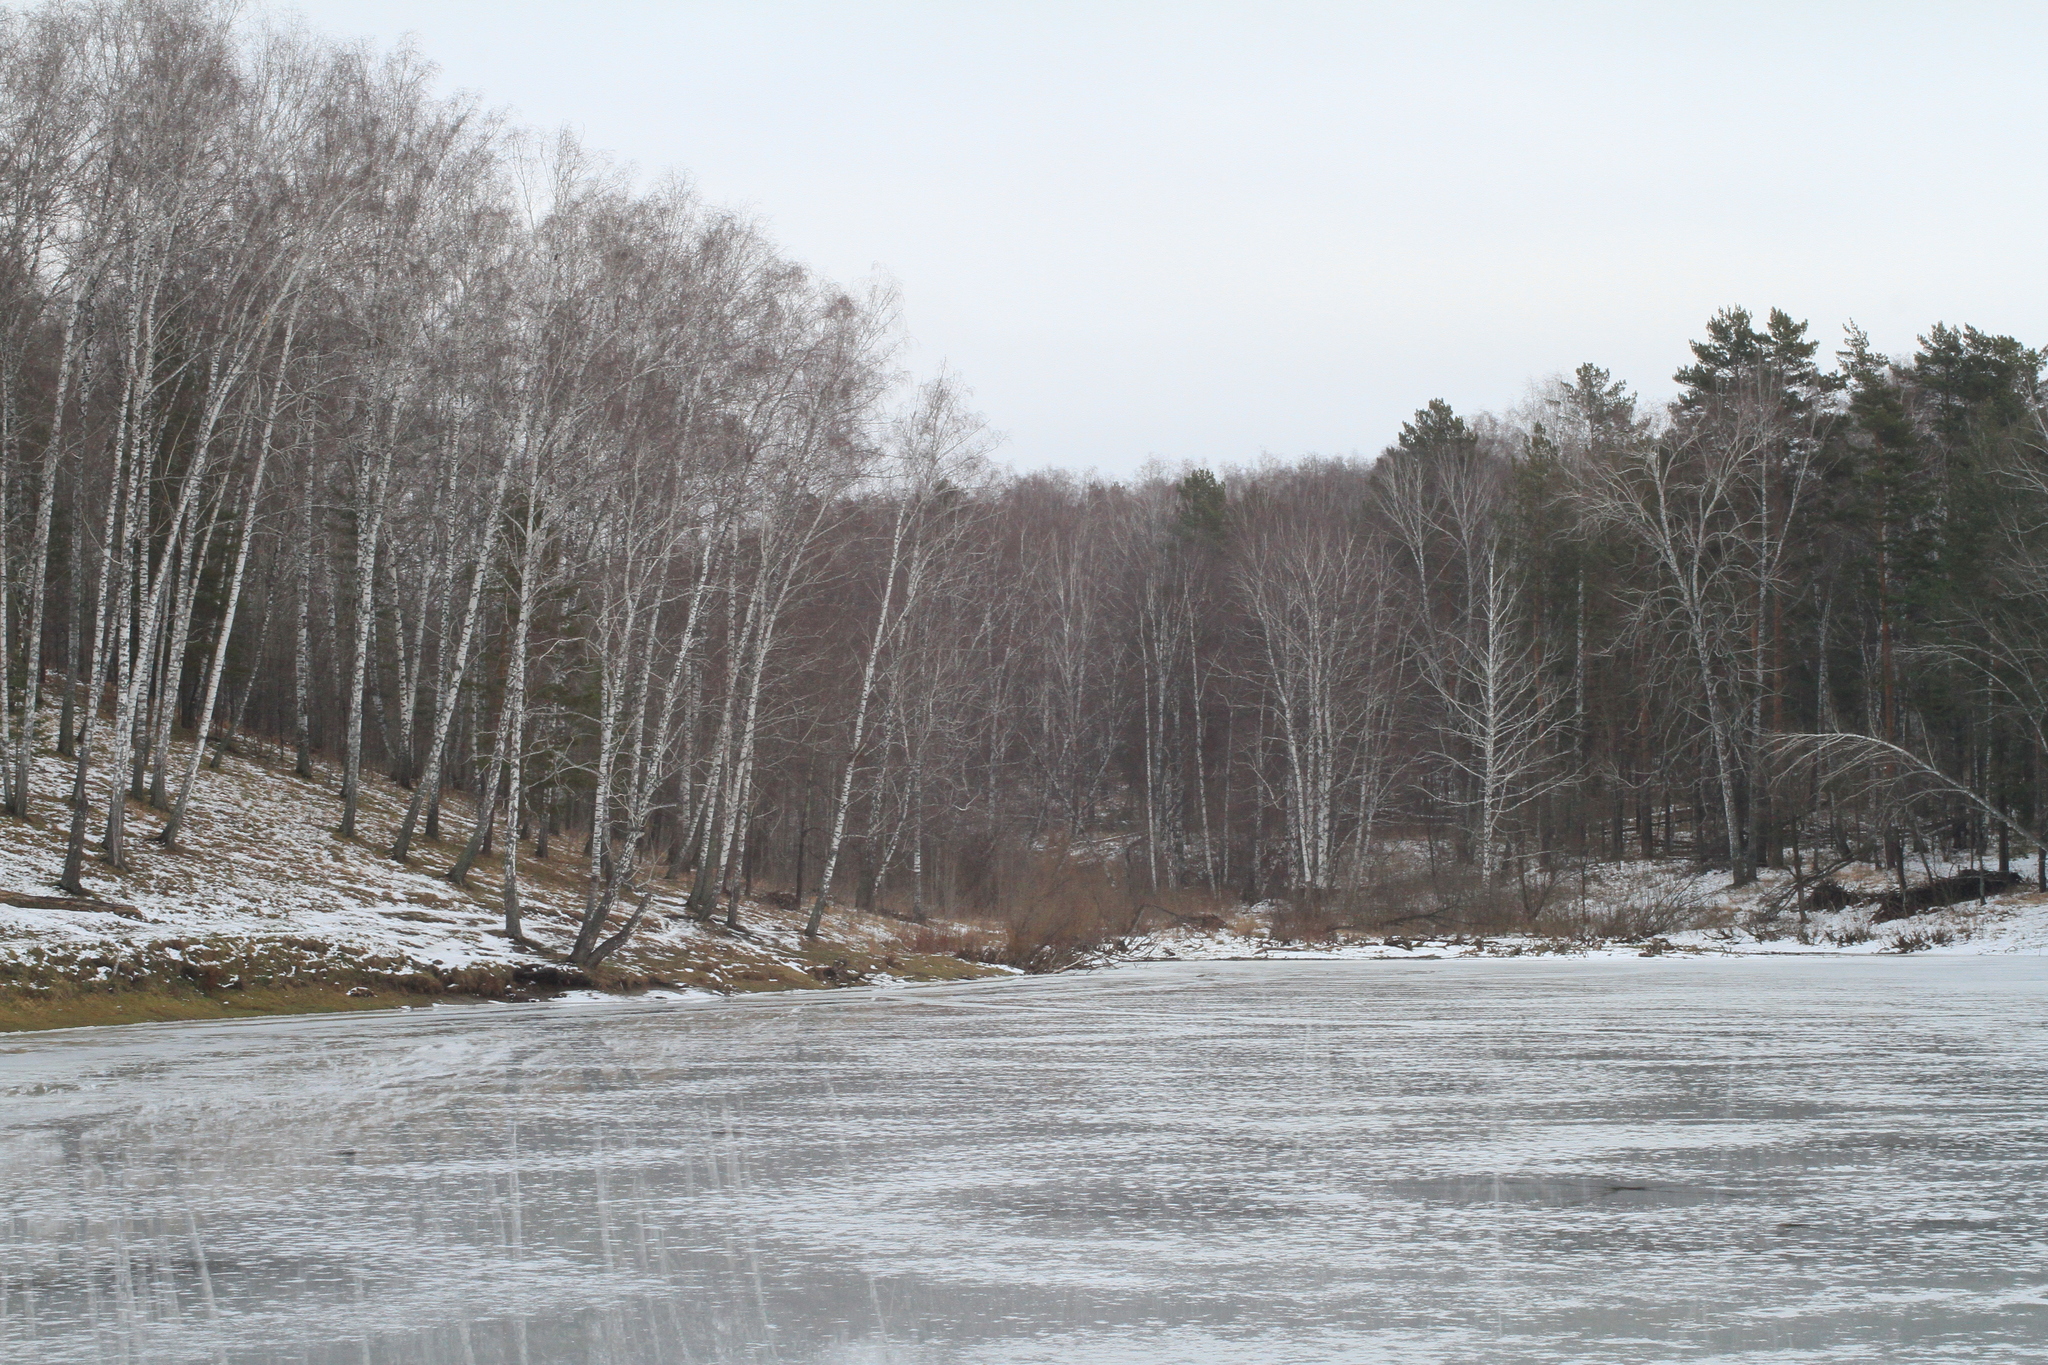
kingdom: Plantae
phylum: Tracheophyta
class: Magnoliopsida
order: Fagales
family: Betulaceae
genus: Betula
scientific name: Betula pendula
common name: Silver birch
